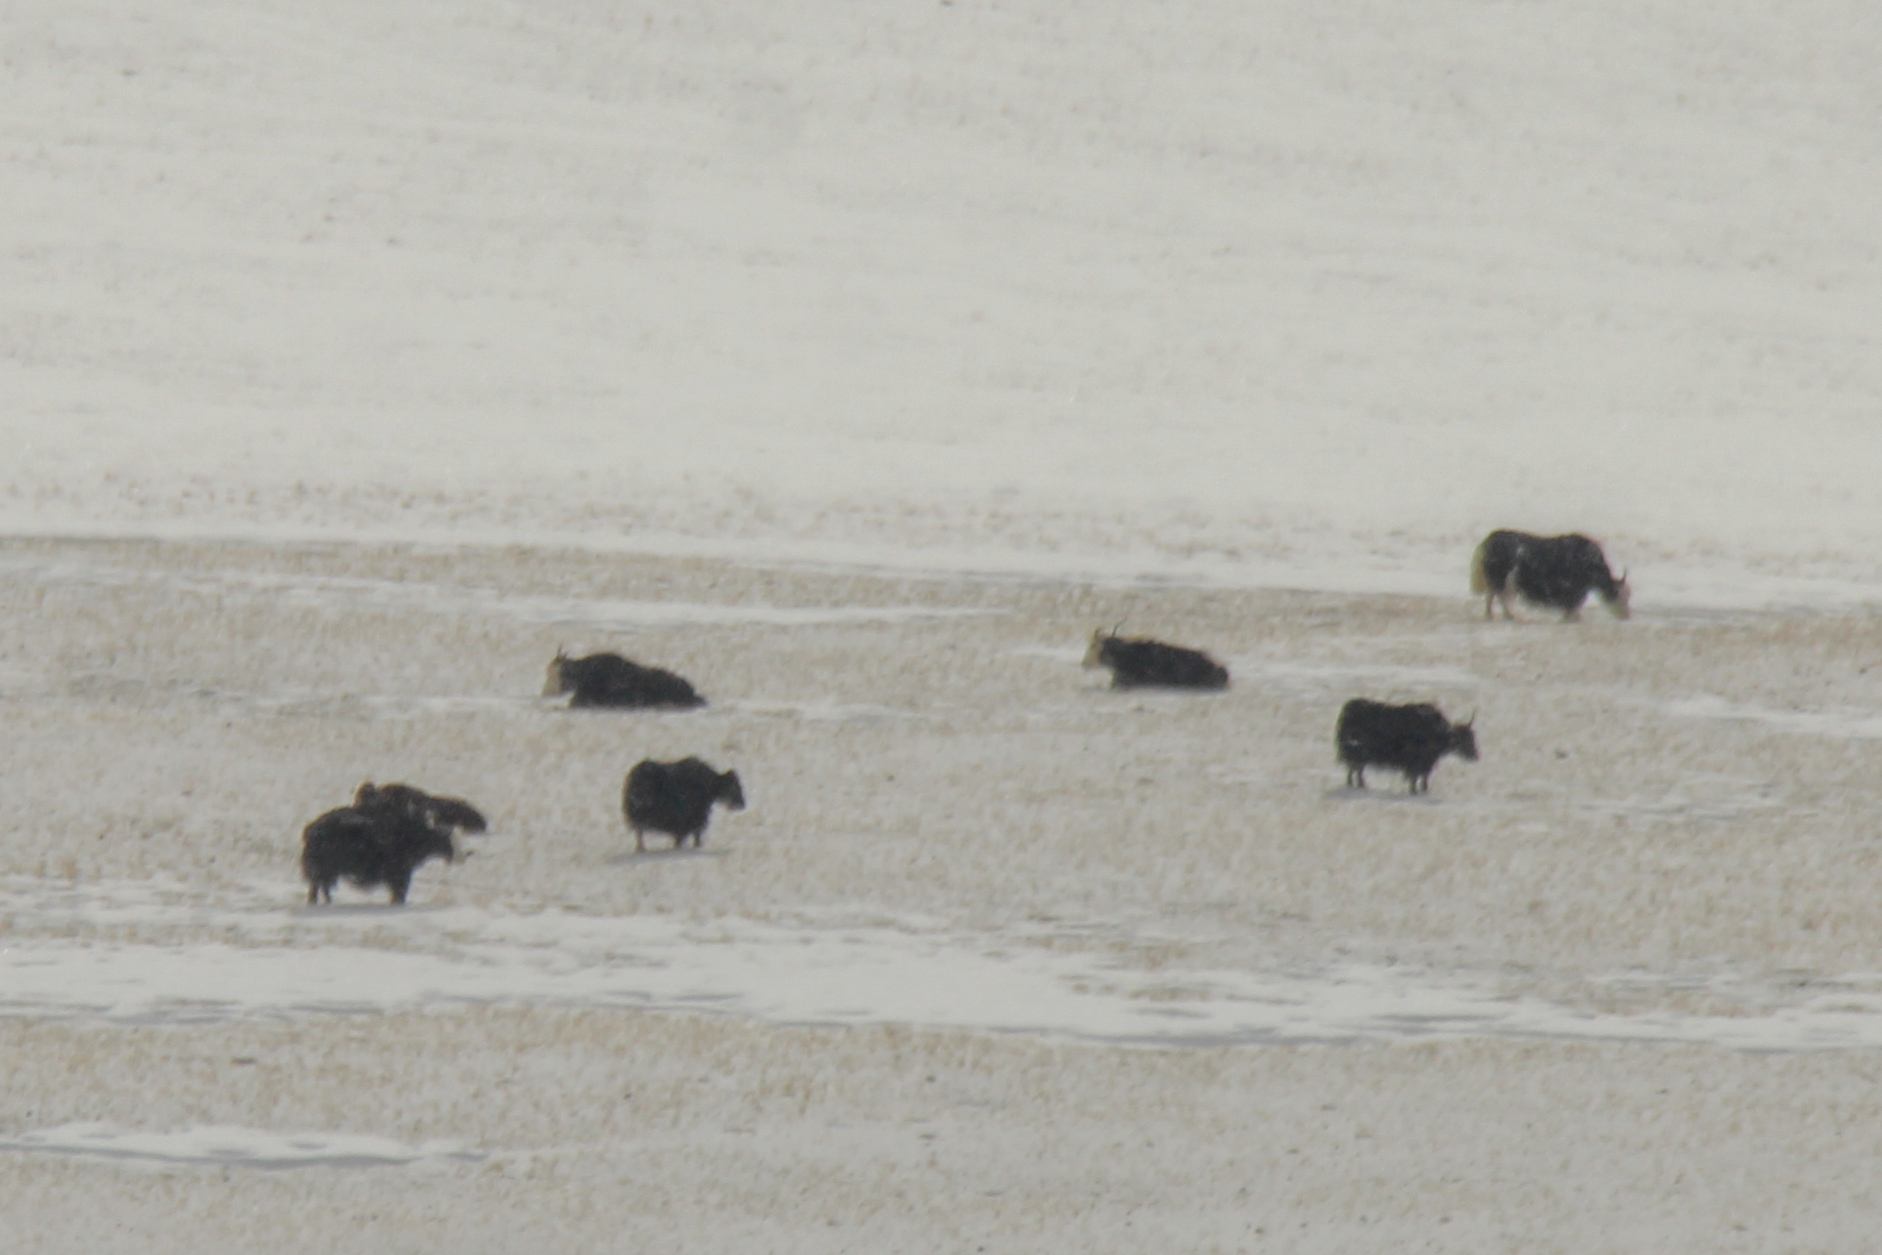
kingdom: Animalia
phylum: Chordata
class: Mammalia
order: Artiodactyla
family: Bovidae
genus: Bos
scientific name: Bos grunniens
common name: Yak
